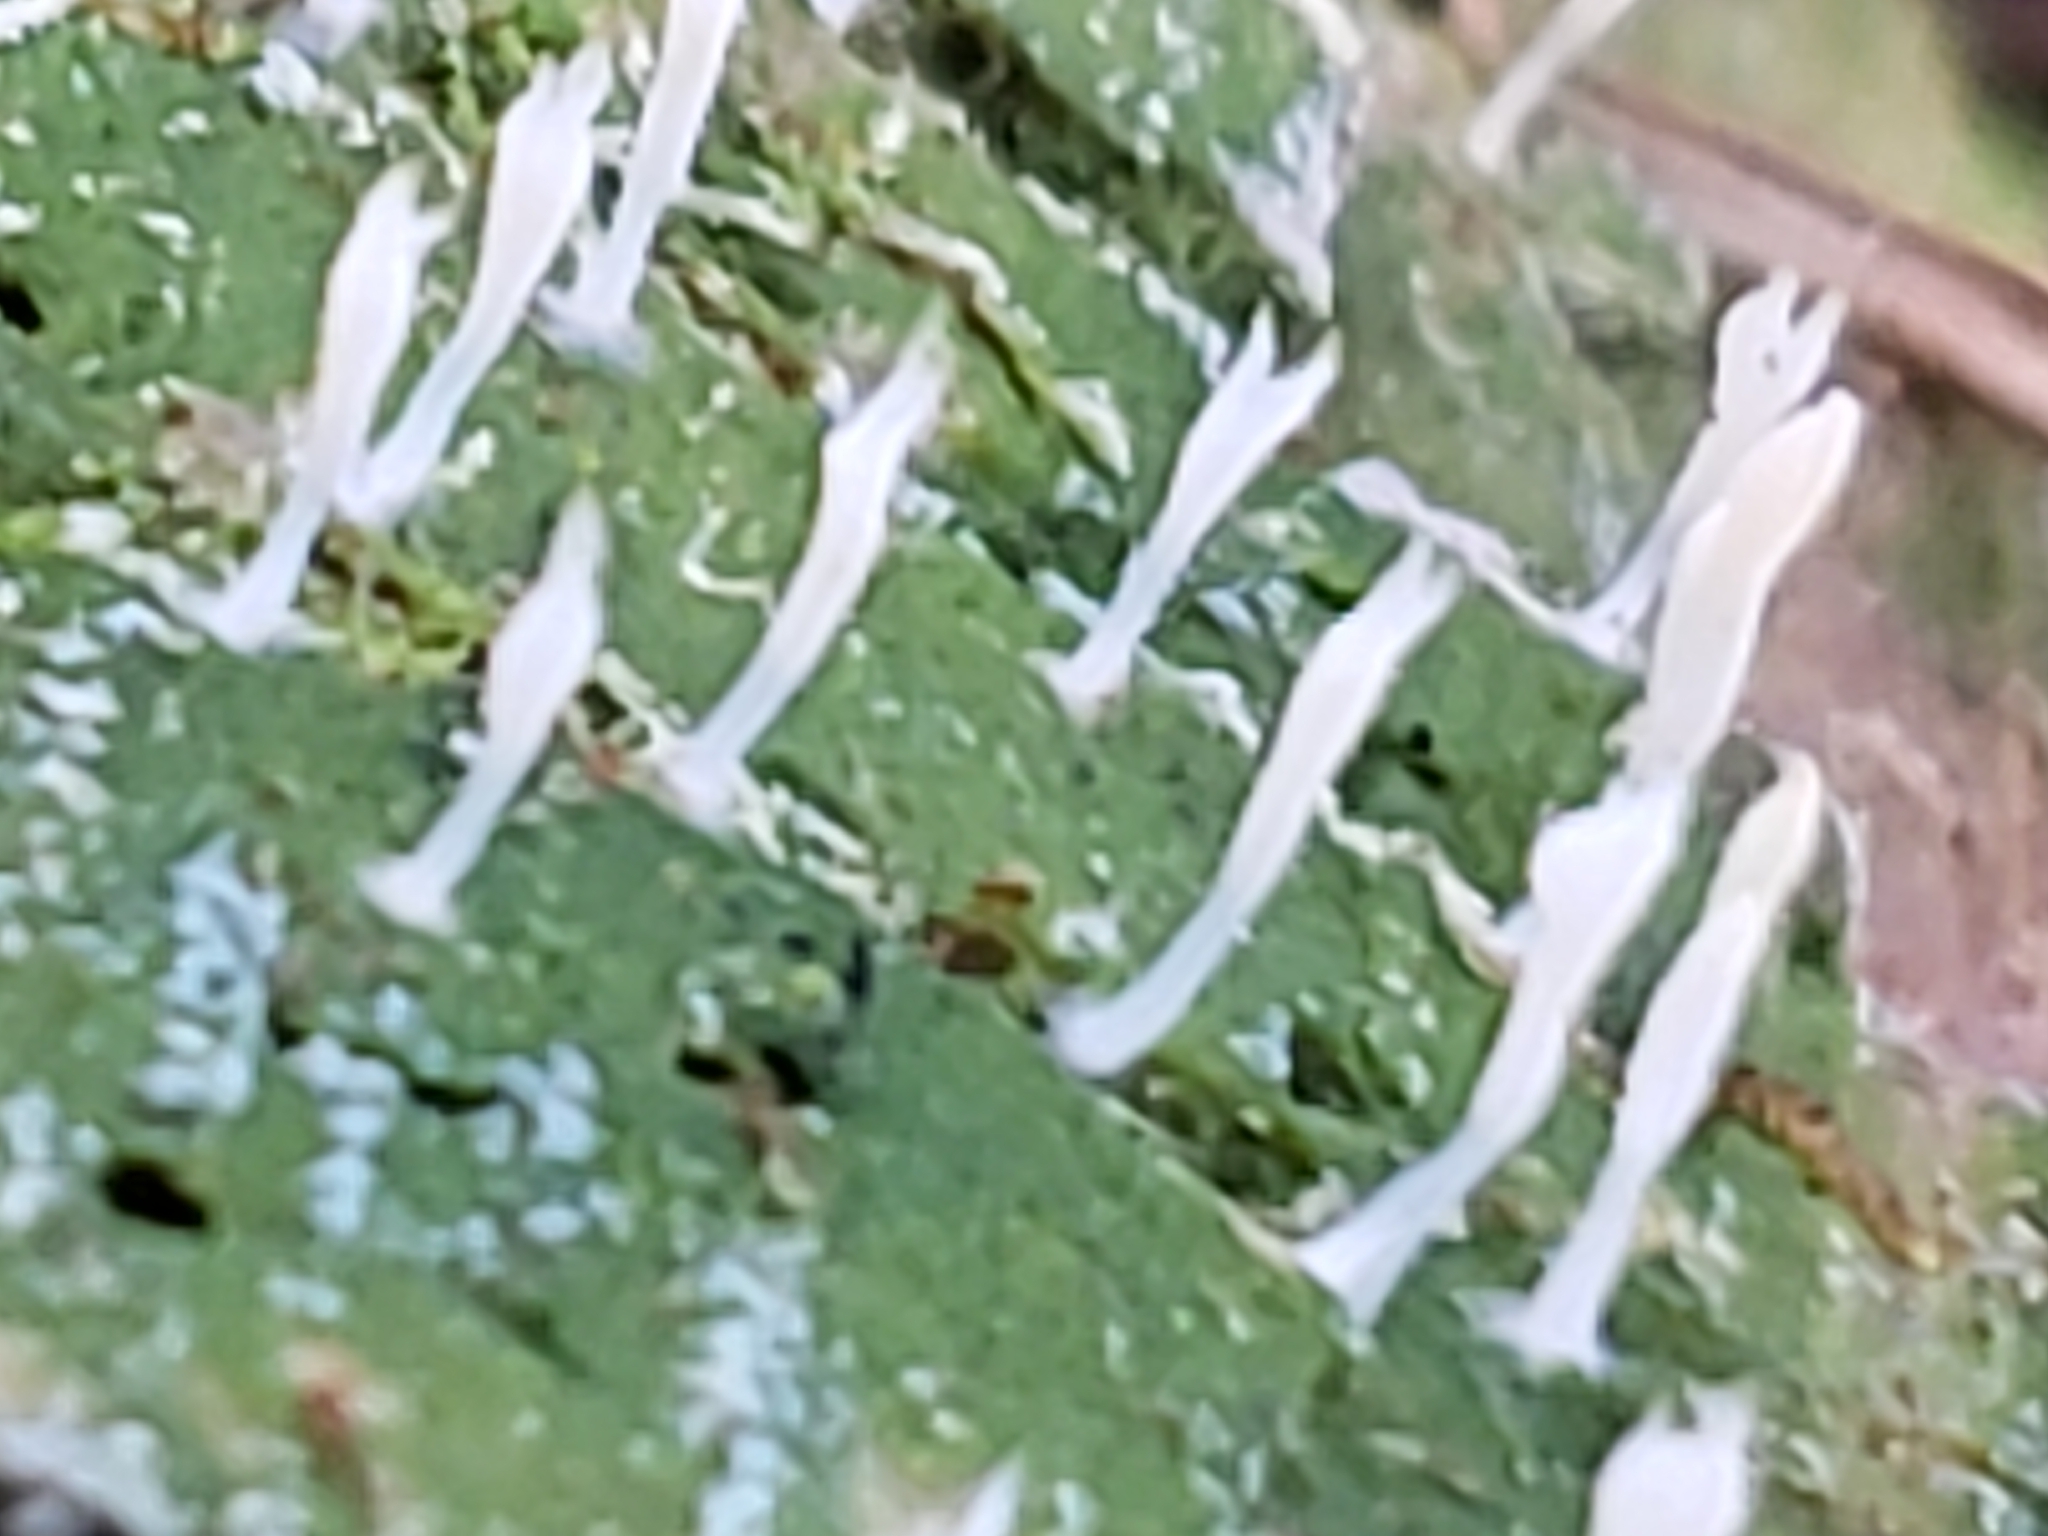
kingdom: Fungi
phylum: Basidiomycota
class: Agaricomycetes
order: Cantharellales
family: Hydnaceae
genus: Multiclavula
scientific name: Multiclavula mucida
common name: White green-algae coral
